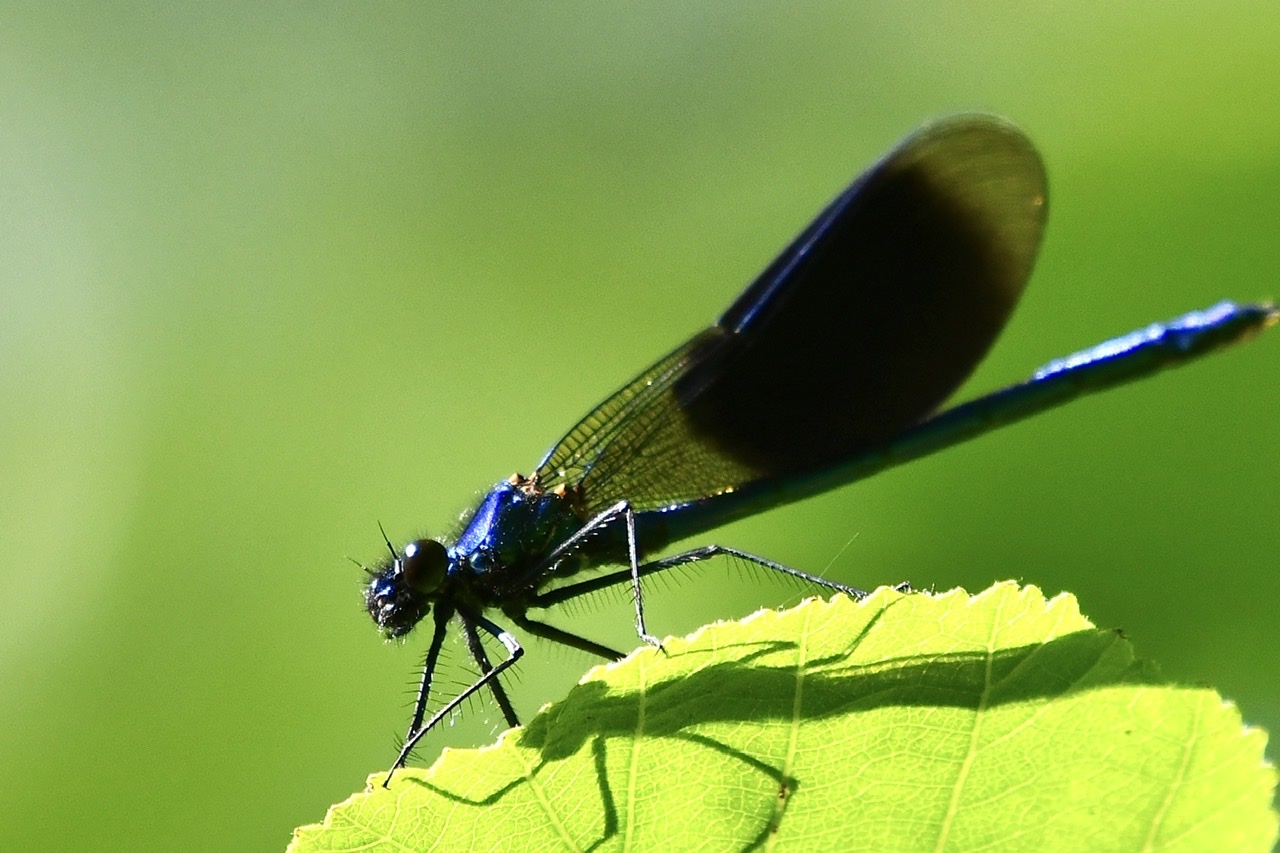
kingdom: Animalia
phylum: Arthropoda
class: Insecta
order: Odonata
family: Calopterygidae
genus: Calopteryx
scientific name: Calopteryx splendens
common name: Banded demoiselle
